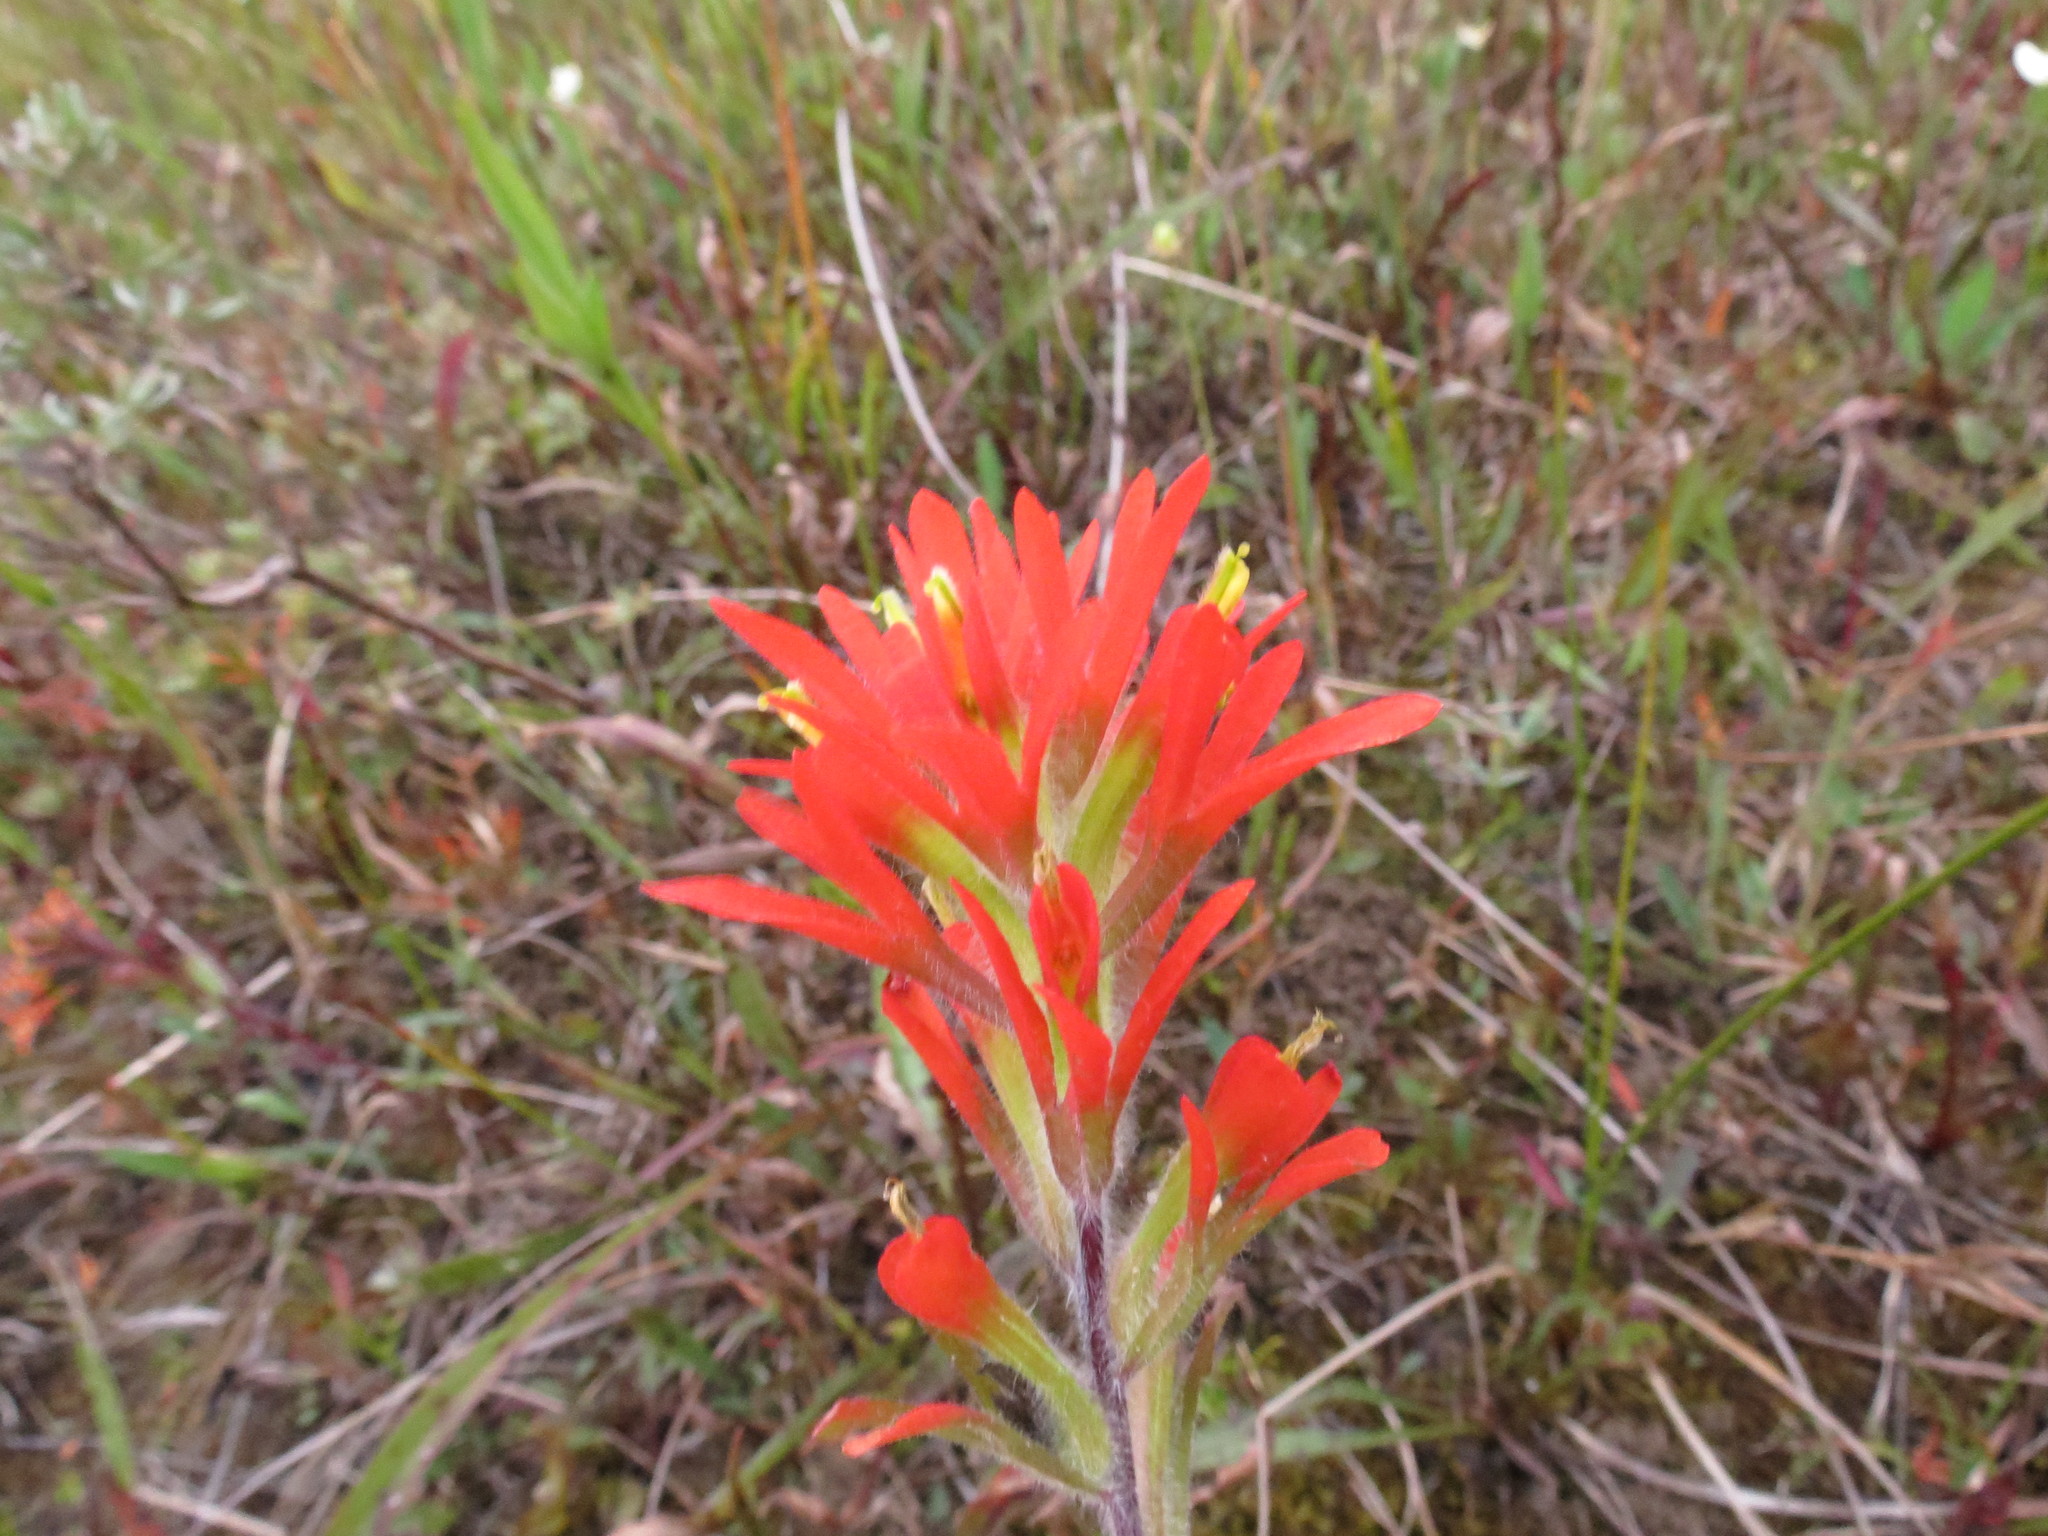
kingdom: Plantae
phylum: Tracheophyta
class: Magnoliopsida
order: Lamiales
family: Orobanchaceae
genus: Castilleja
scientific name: Castilleja coccinea
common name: Scarlet paintbrush
